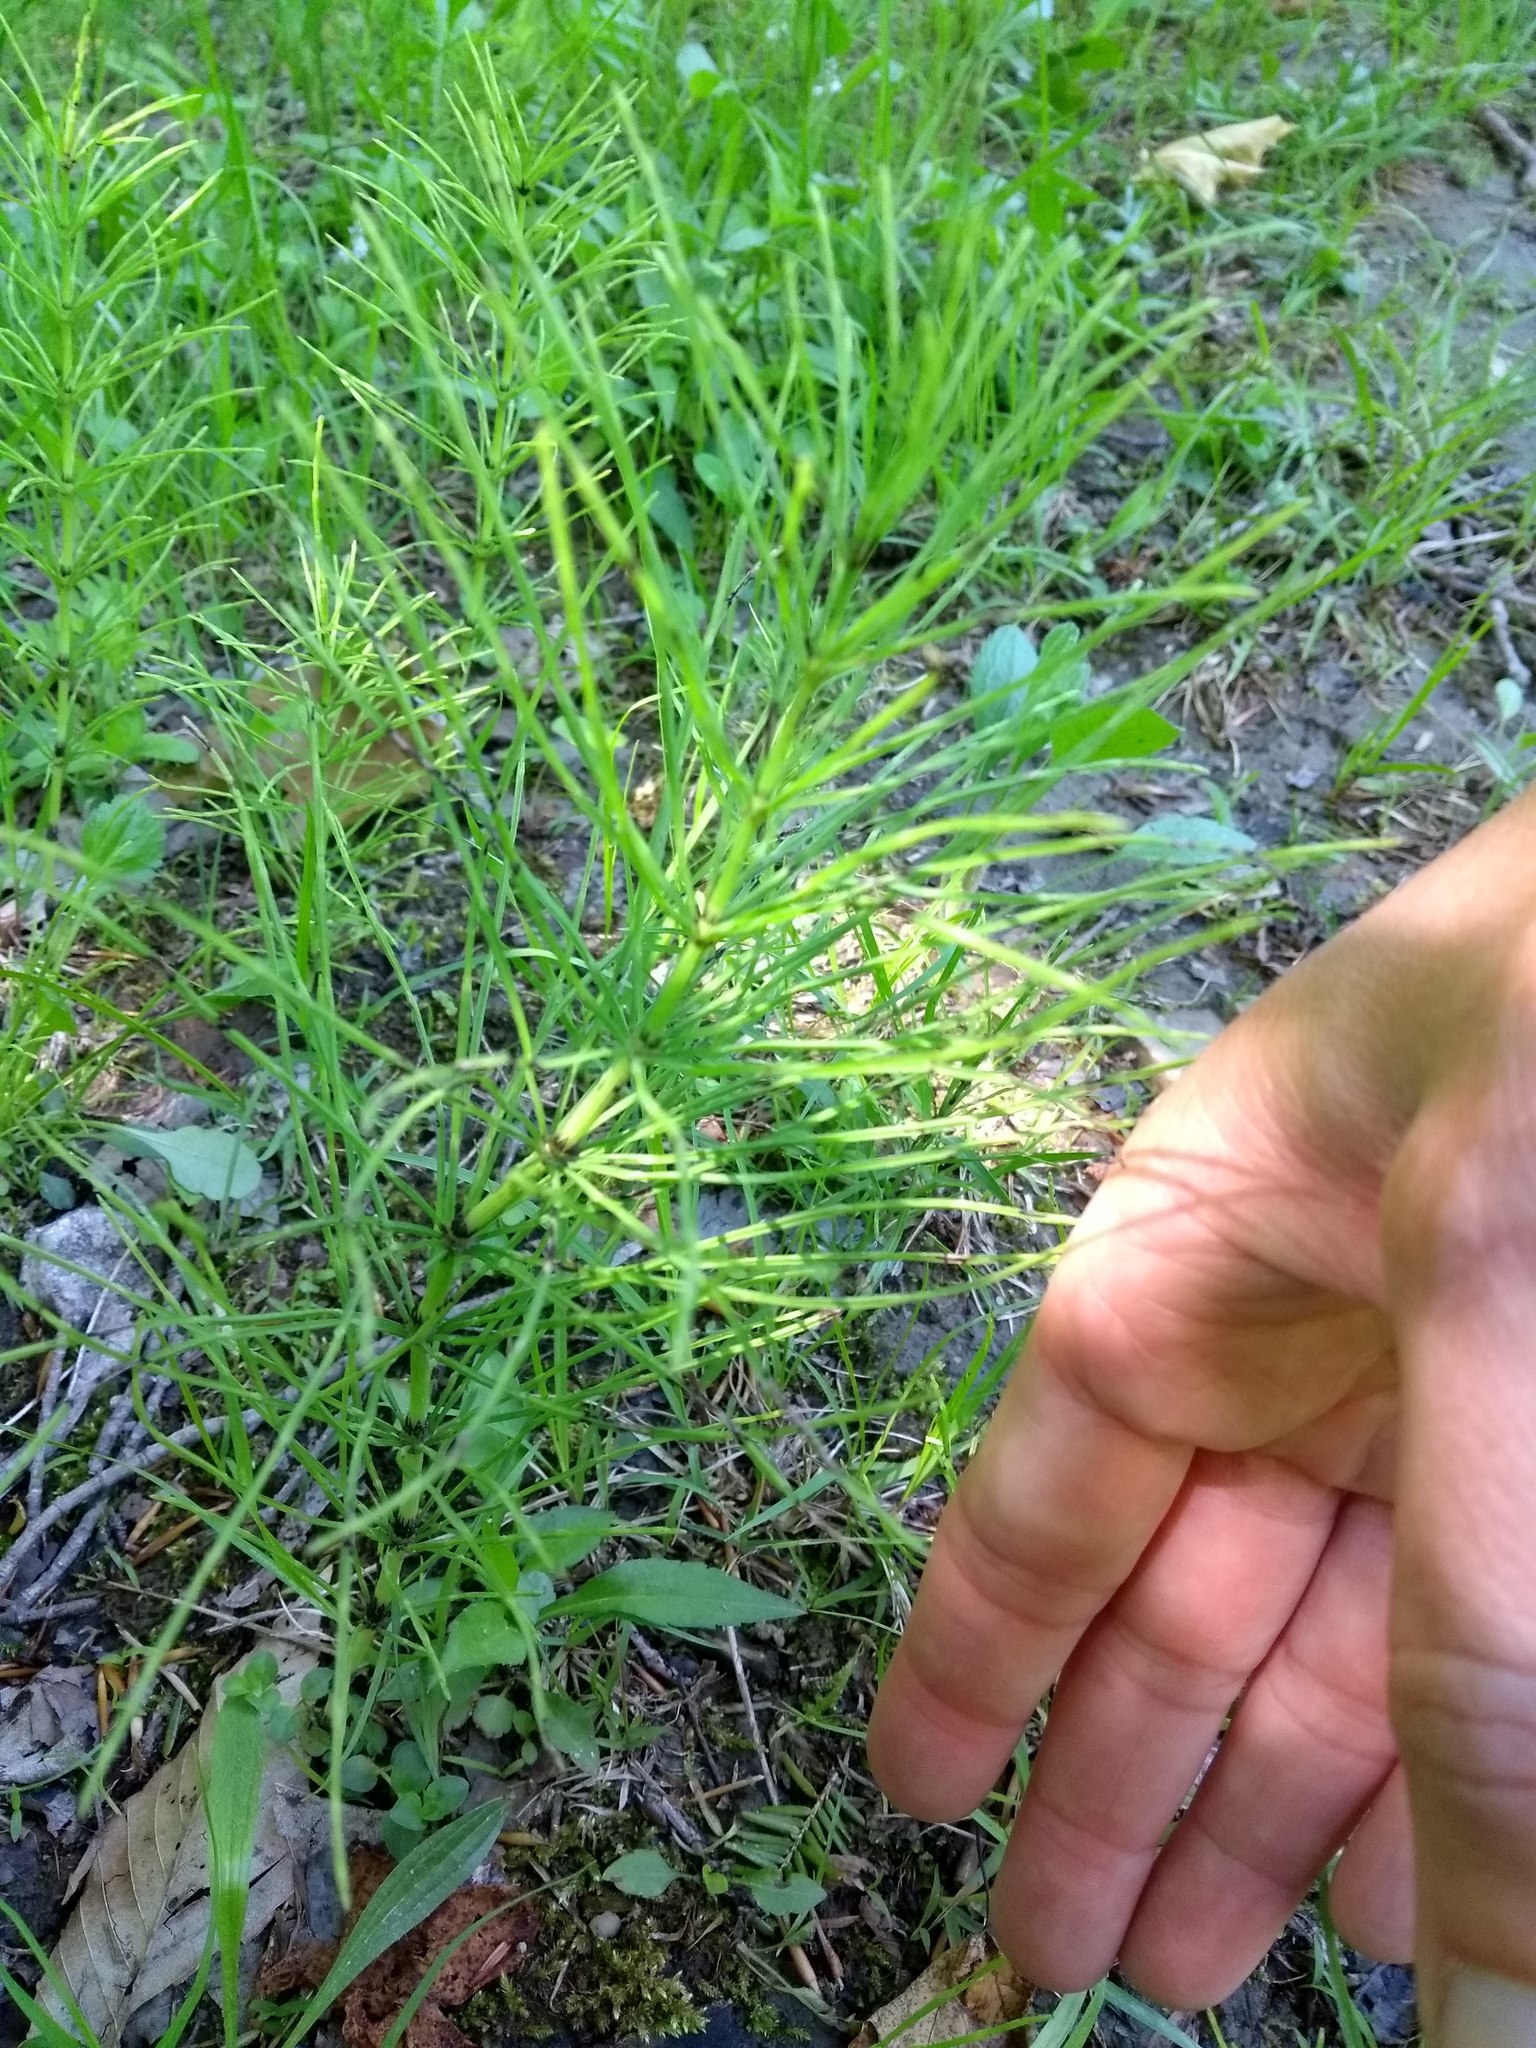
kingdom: Plantae
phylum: Tracheophyta
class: Polypodiopsida
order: Equisetales
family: Equisetaceae
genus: Equisetum
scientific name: Equisetum arvense
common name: Field horsetail
